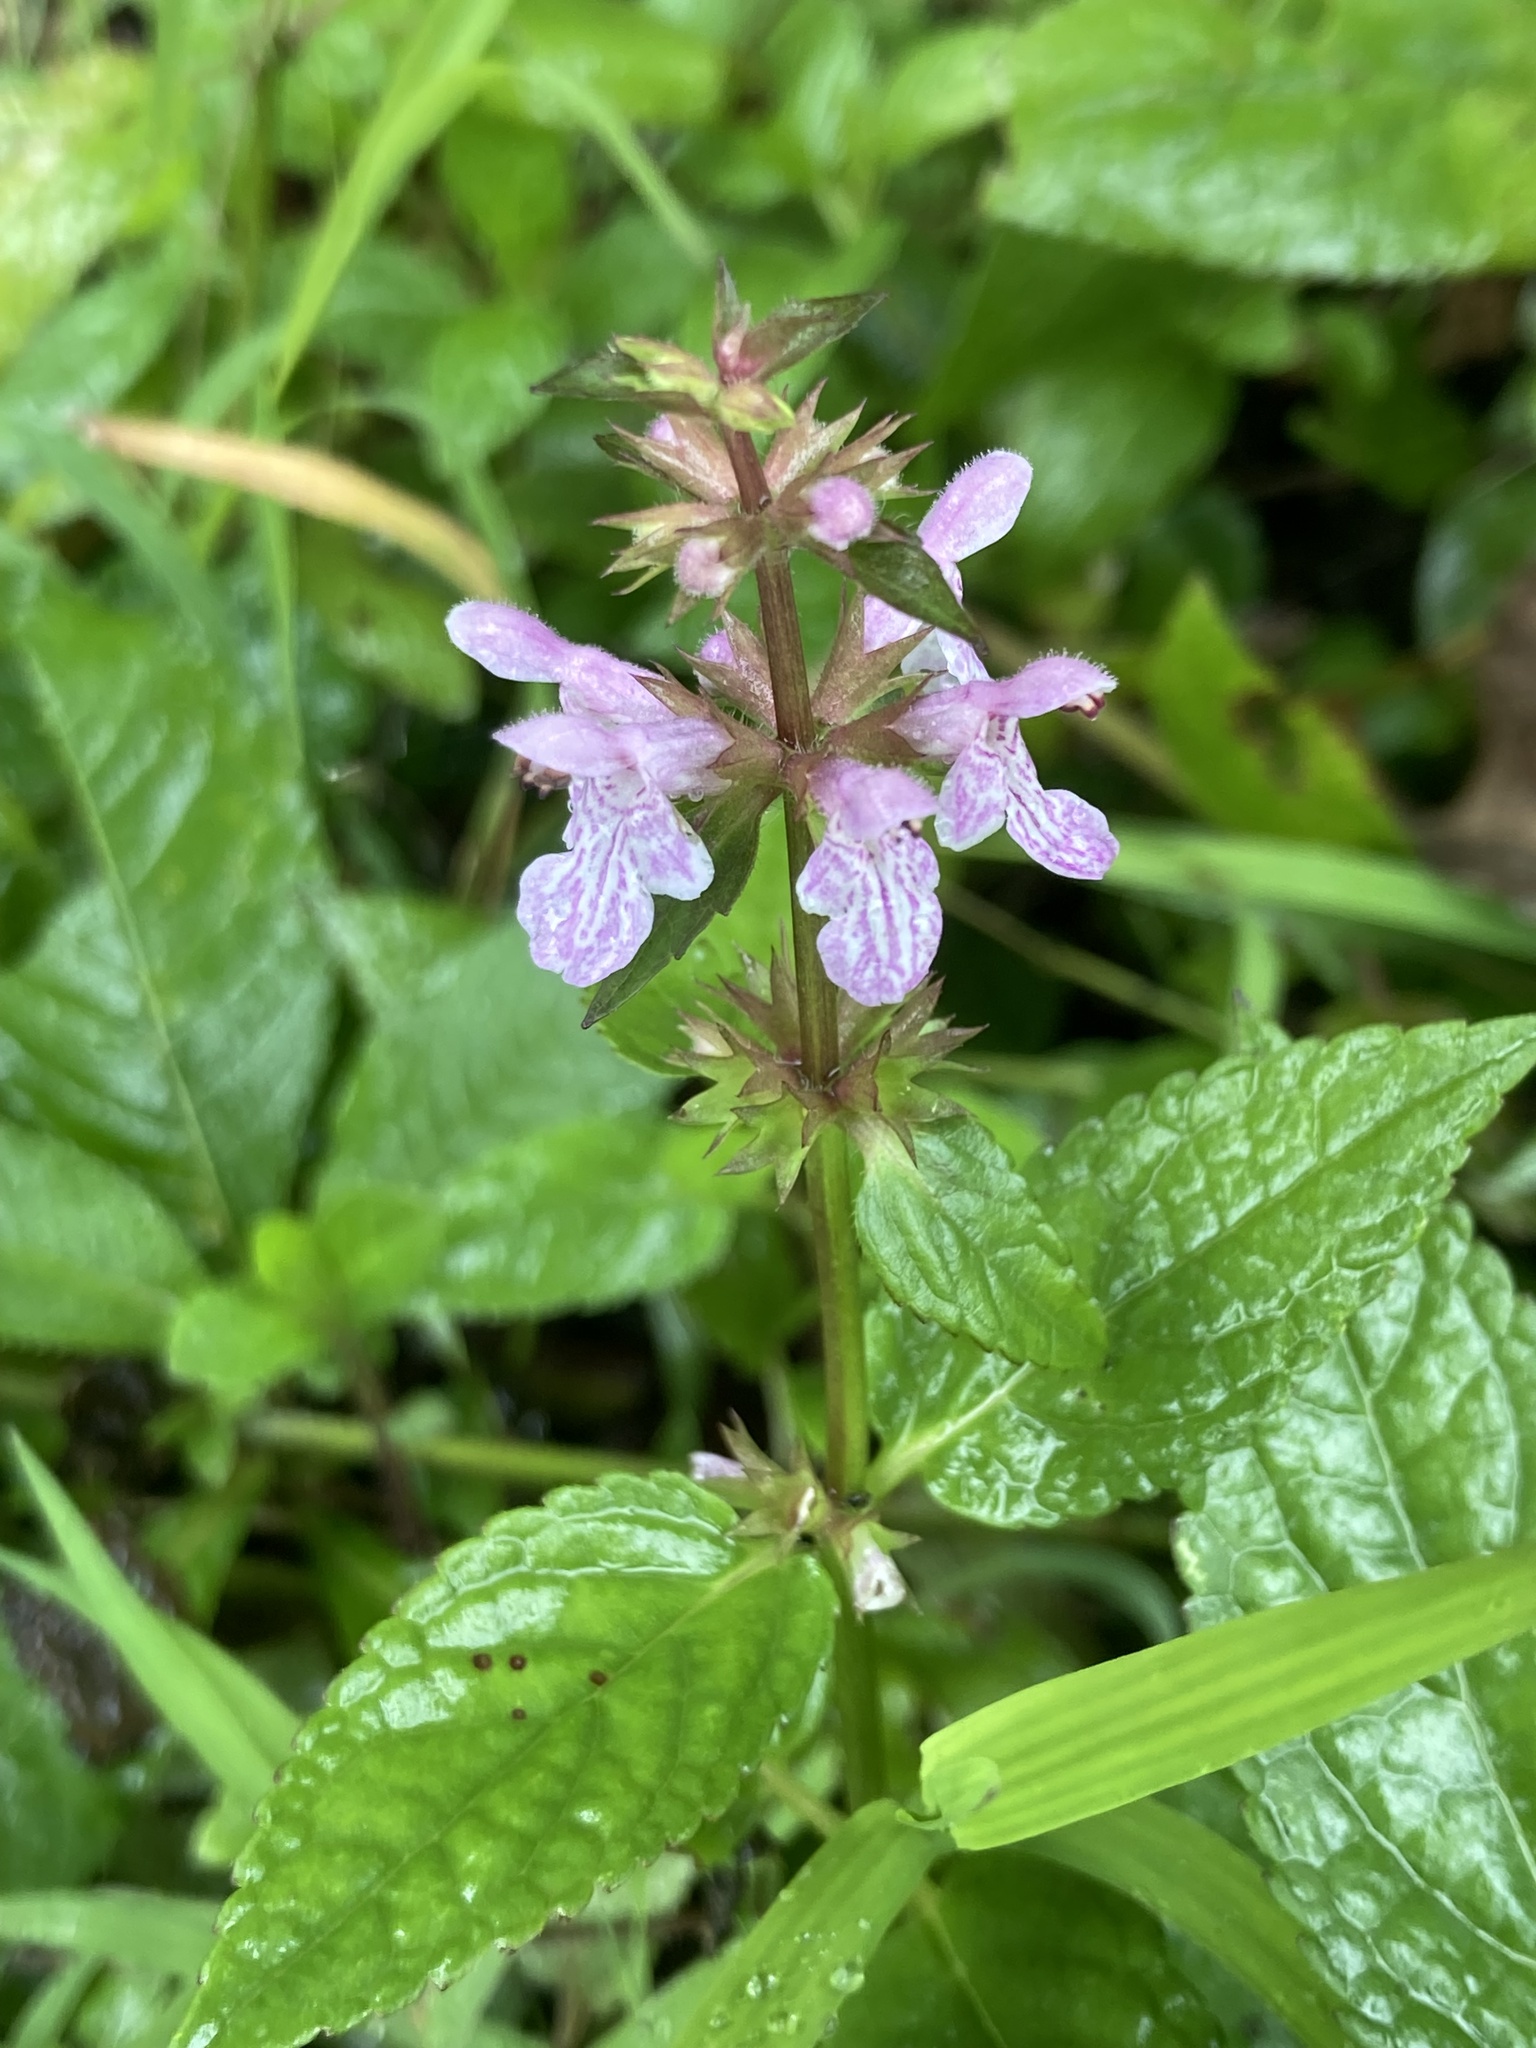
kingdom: Plantae
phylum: Tracheophyta
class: Magnoliopsida
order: Lamiales
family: Lamiaceae
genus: Stachys
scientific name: Stachys tenuifolia
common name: Smooth hedge-nettle
